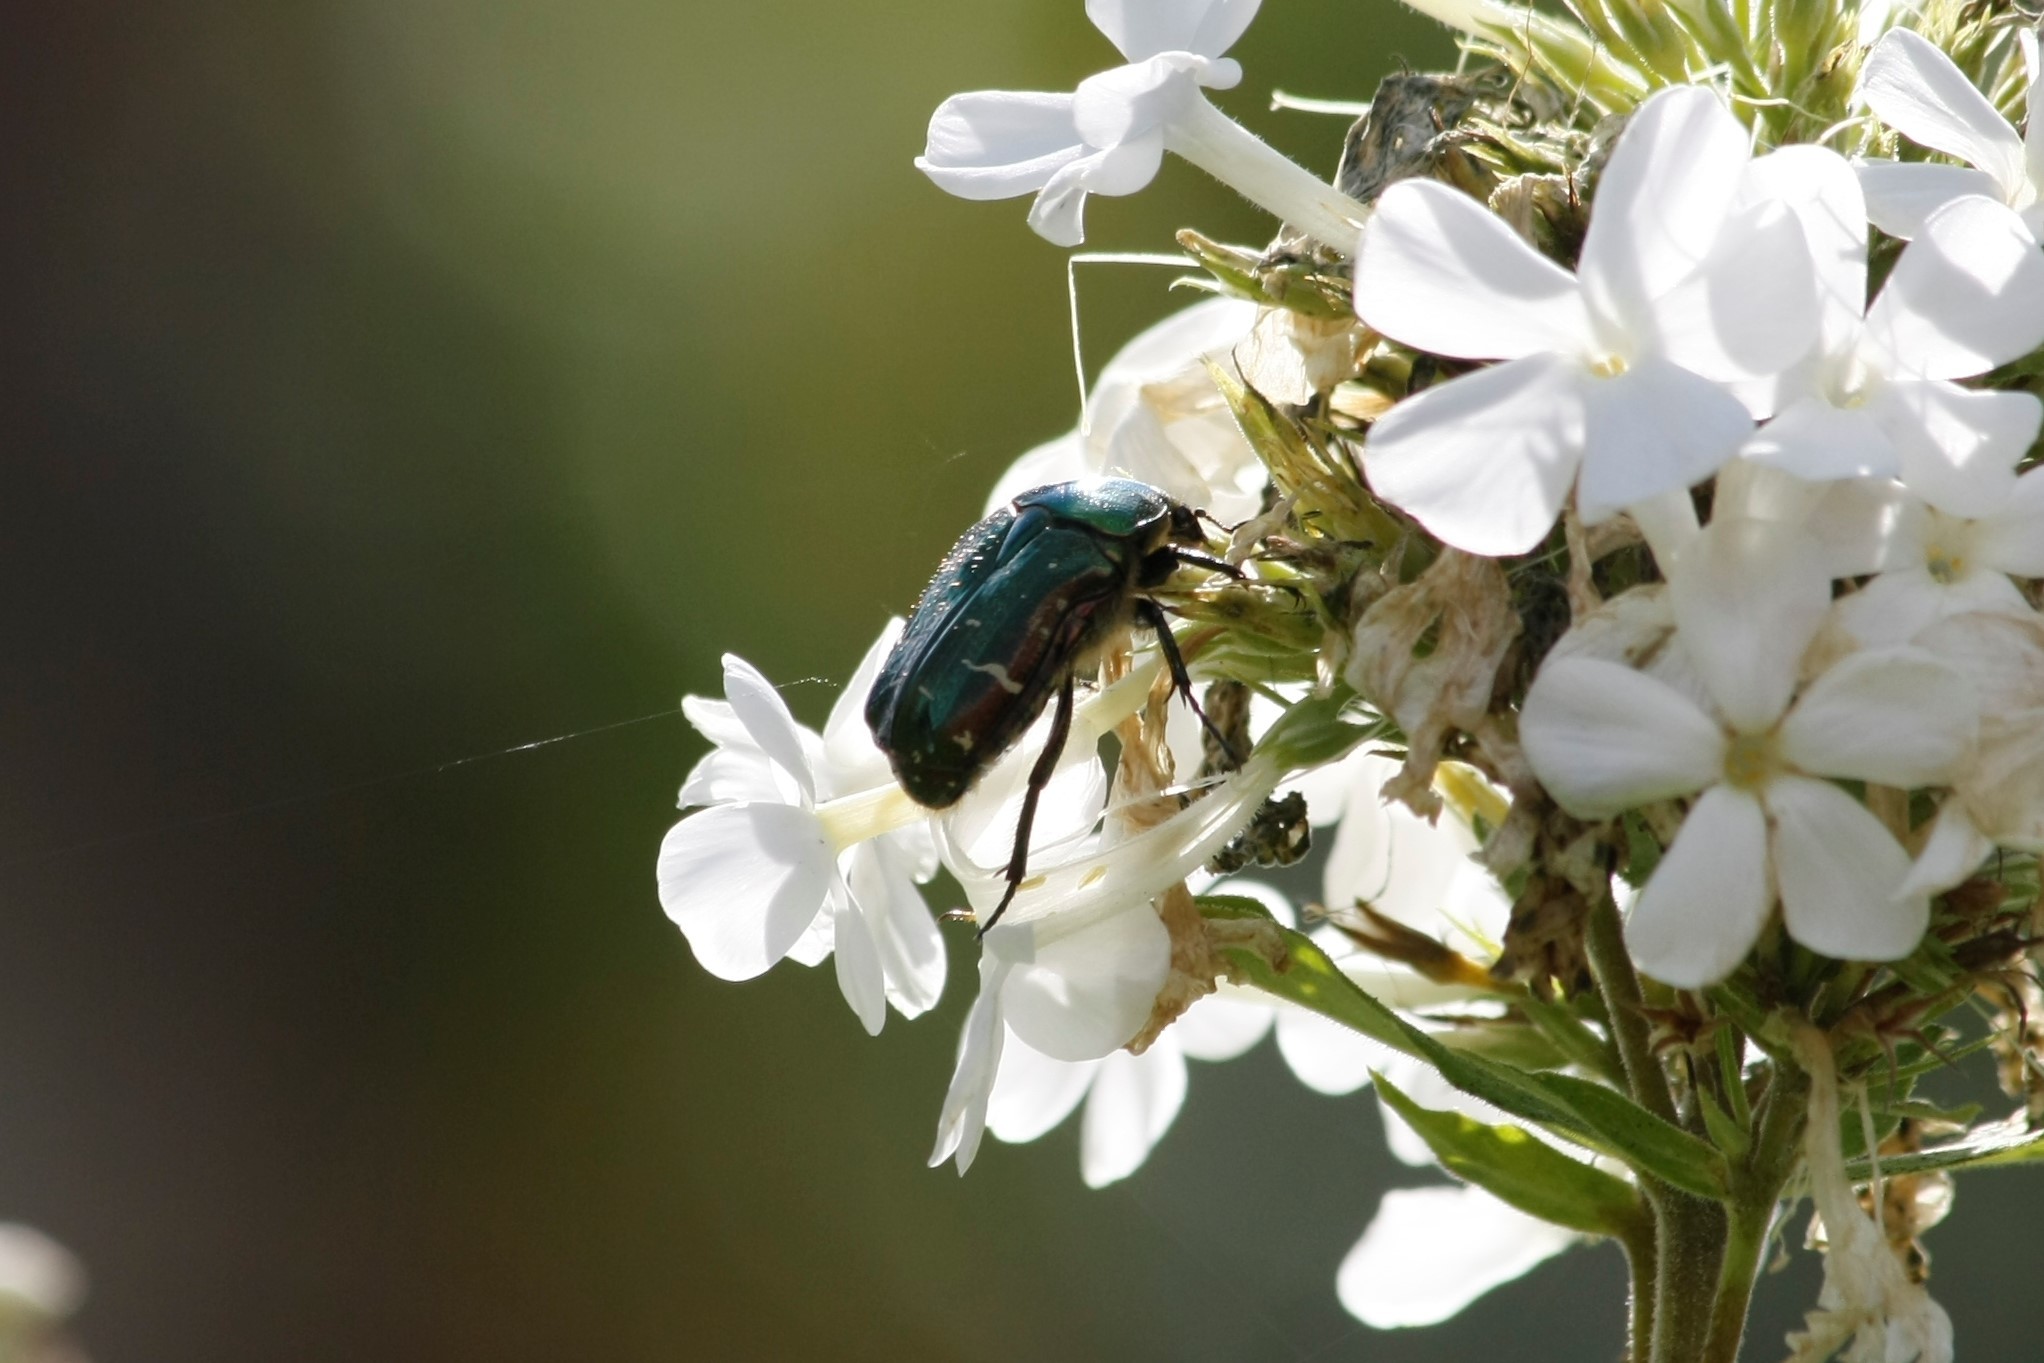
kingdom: Animalia
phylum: Arthropoda
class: Insecta
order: Coleoptera
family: Scarabaeidae
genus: Cetonia
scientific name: Cetonia aurata
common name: Rose chafer
